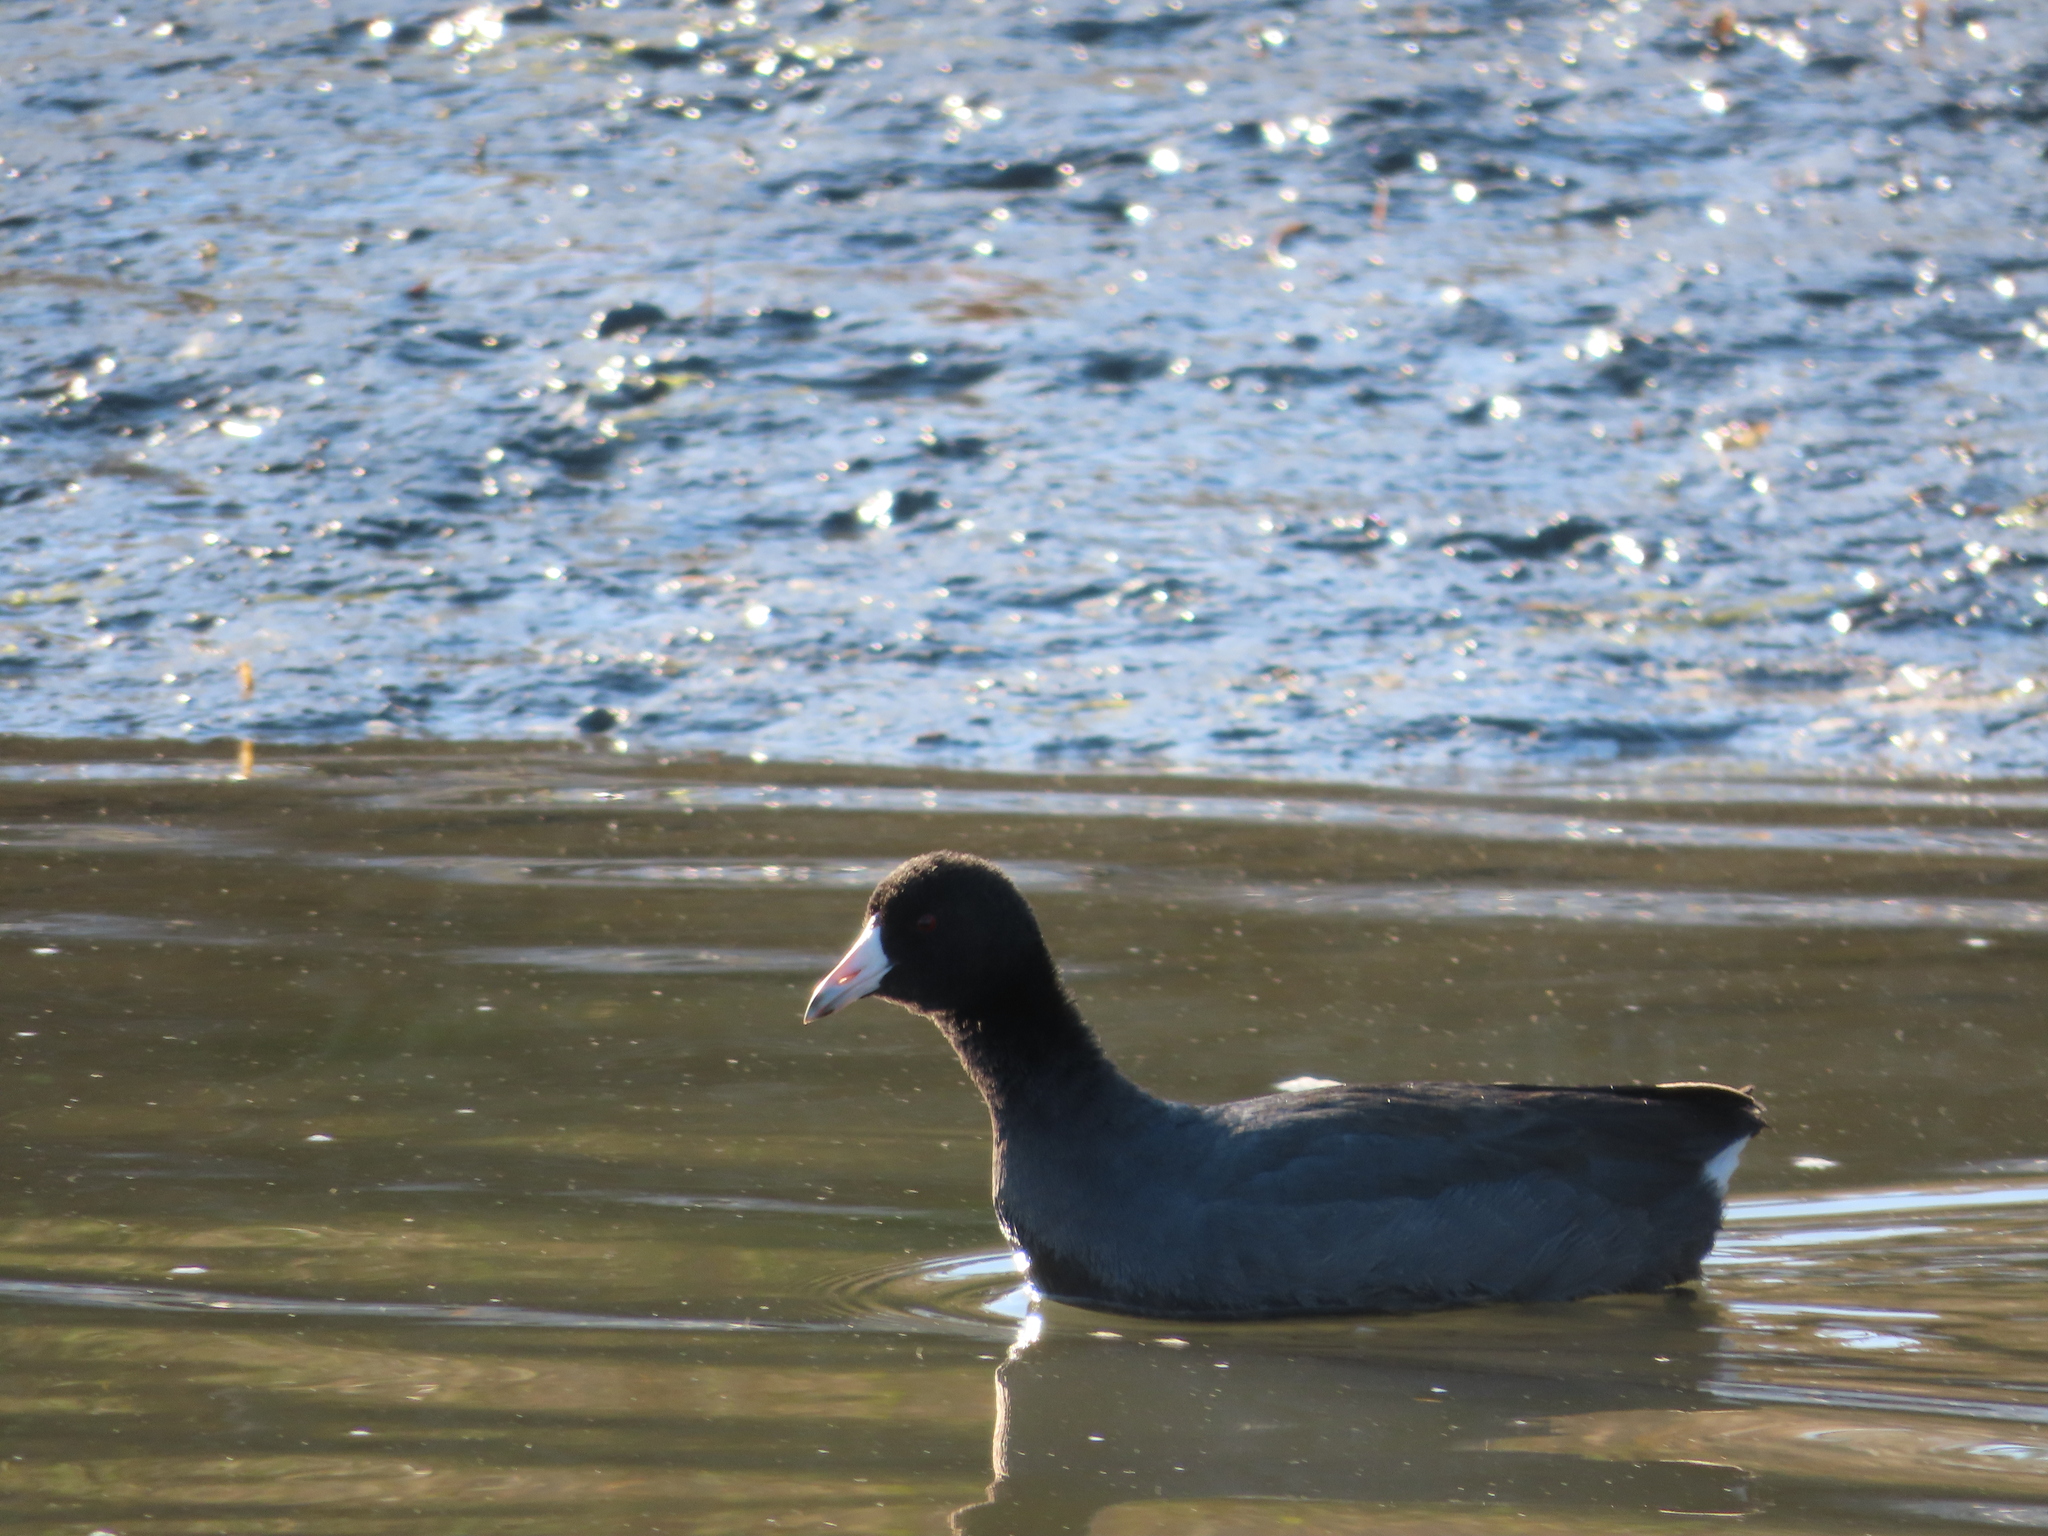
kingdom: Animalia
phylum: Chordata
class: Aves
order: Gruiformes
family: Rallidae
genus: Fulica
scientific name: Fulica americana
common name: American coot
